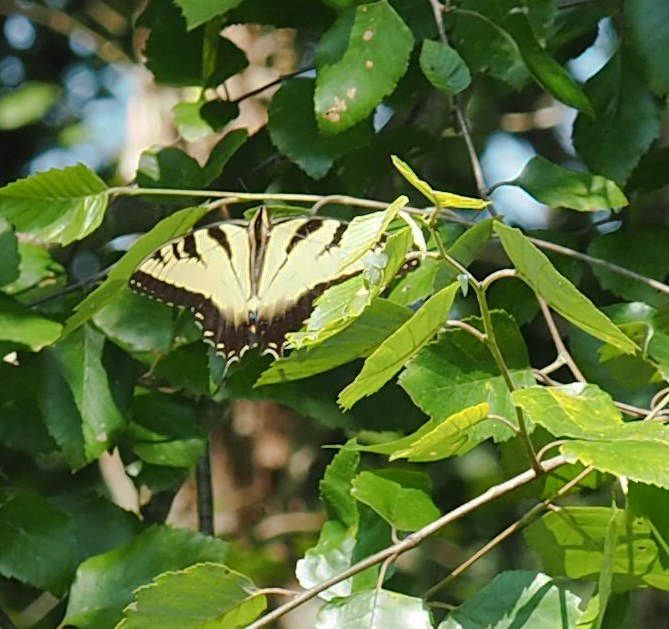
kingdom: Animalia
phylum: Arthropoda
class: Insecta
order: Lepidoptera
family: Papilionidae
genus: Papilio
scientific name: Papilio glaucus
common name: Tiger swallowtail
